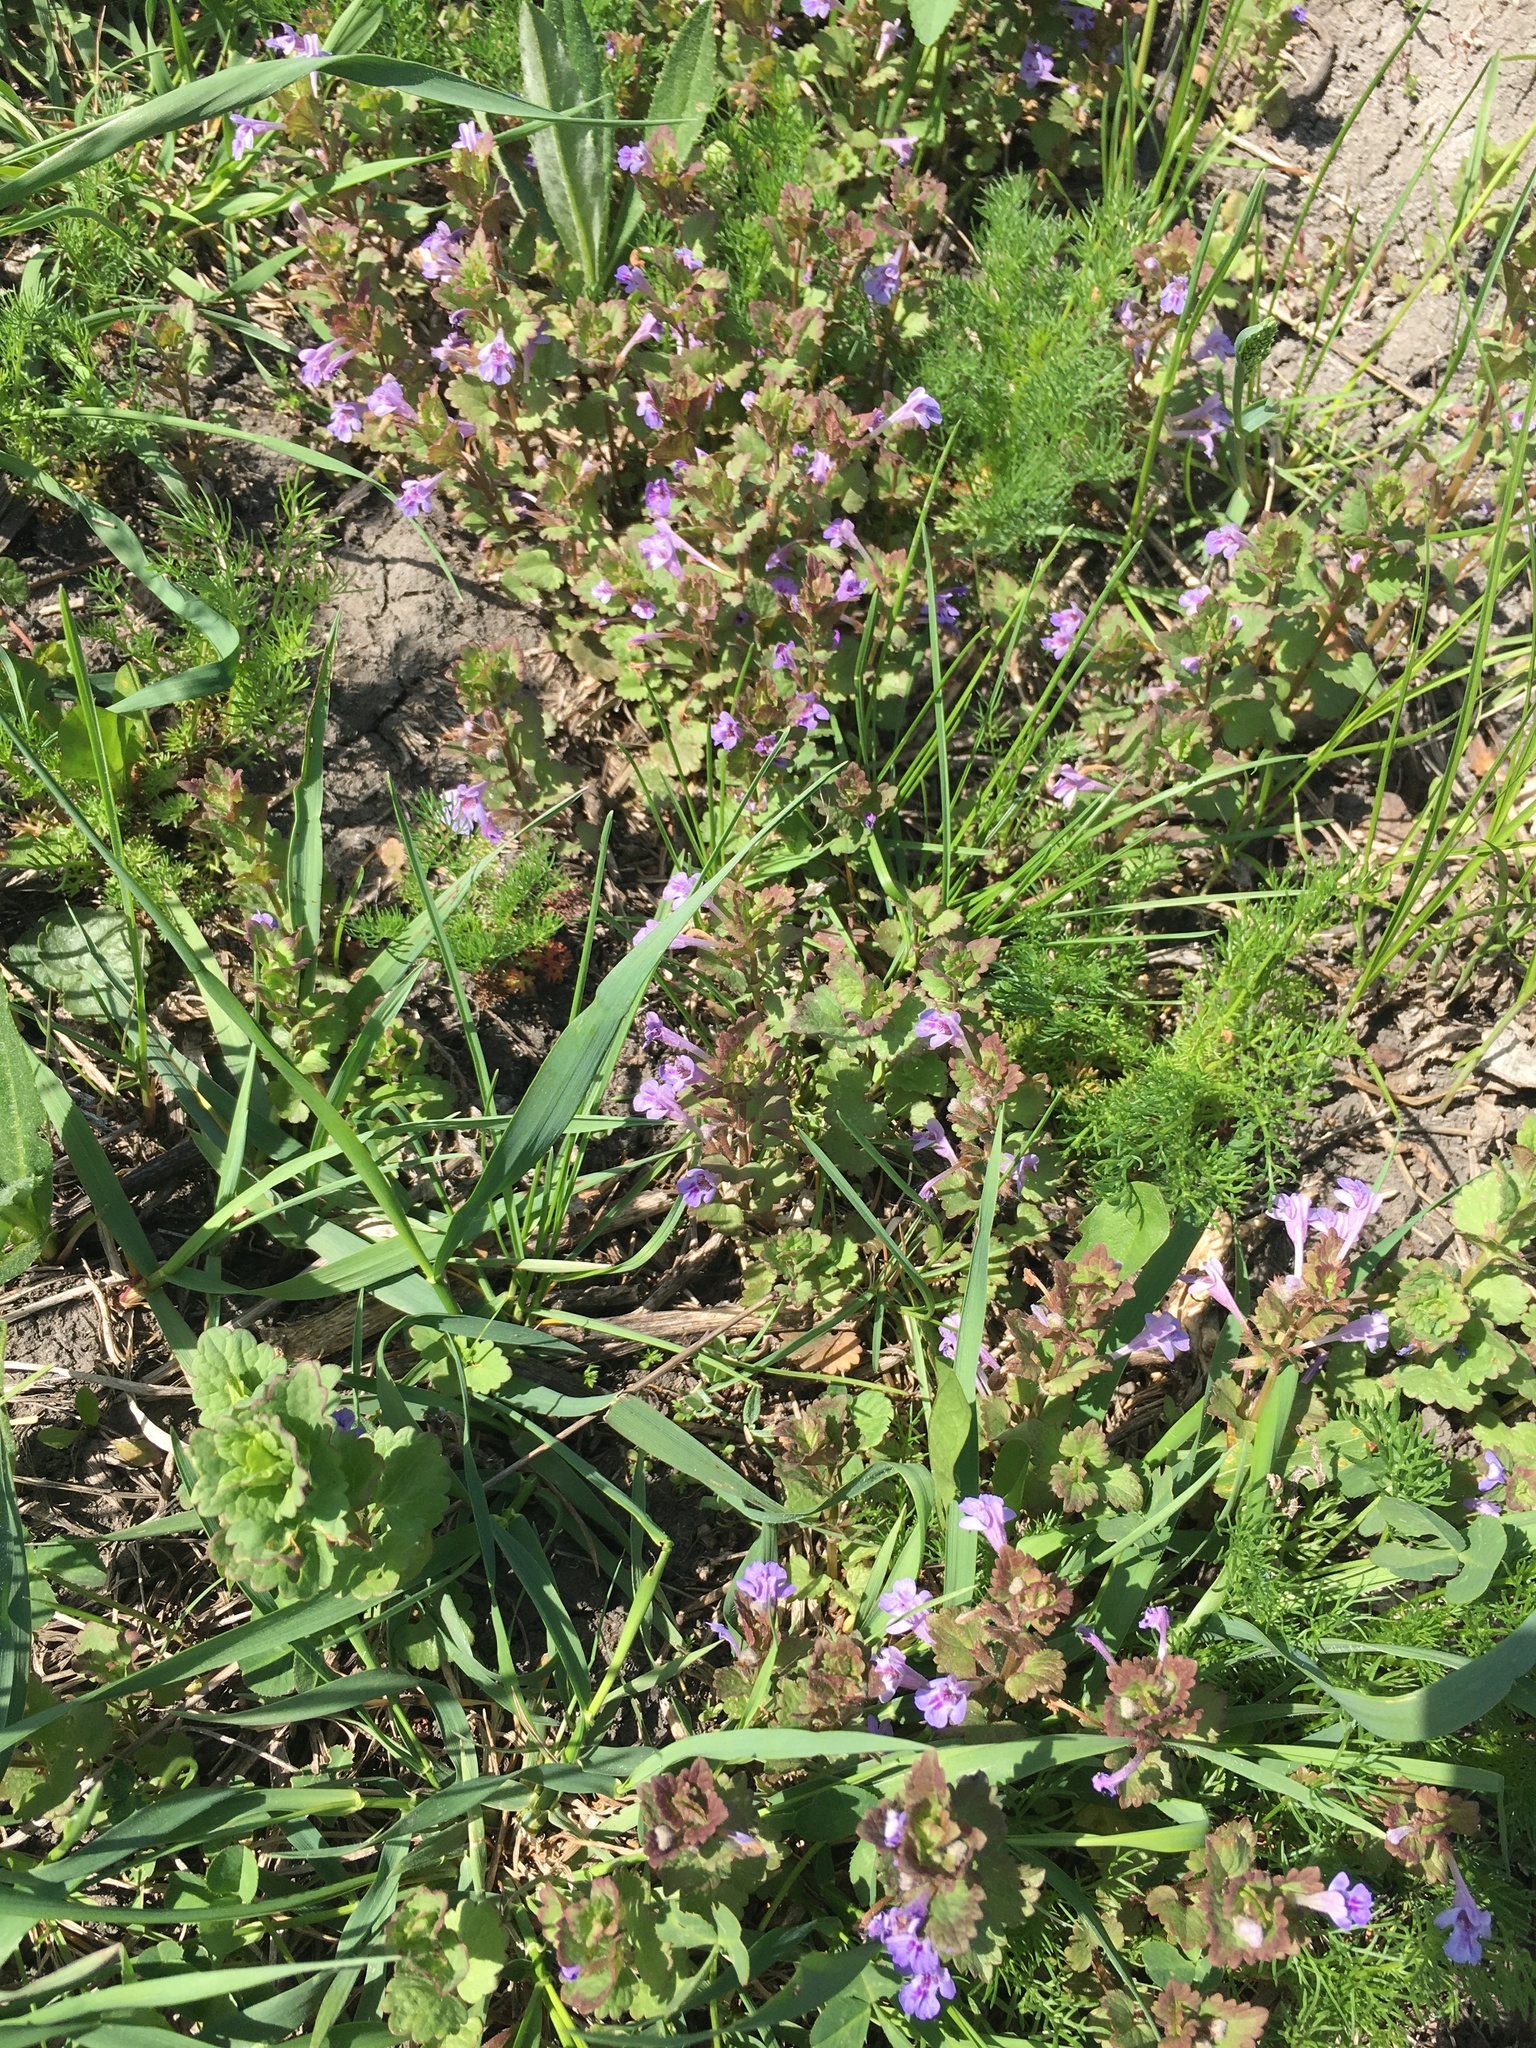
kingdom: Plantae
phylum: Tracheophyta
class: Magnoliopsida
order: Lamiales
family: Lamiaceae
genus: Glechoma
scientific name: Glechoma hederacea
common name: Ground ivy
